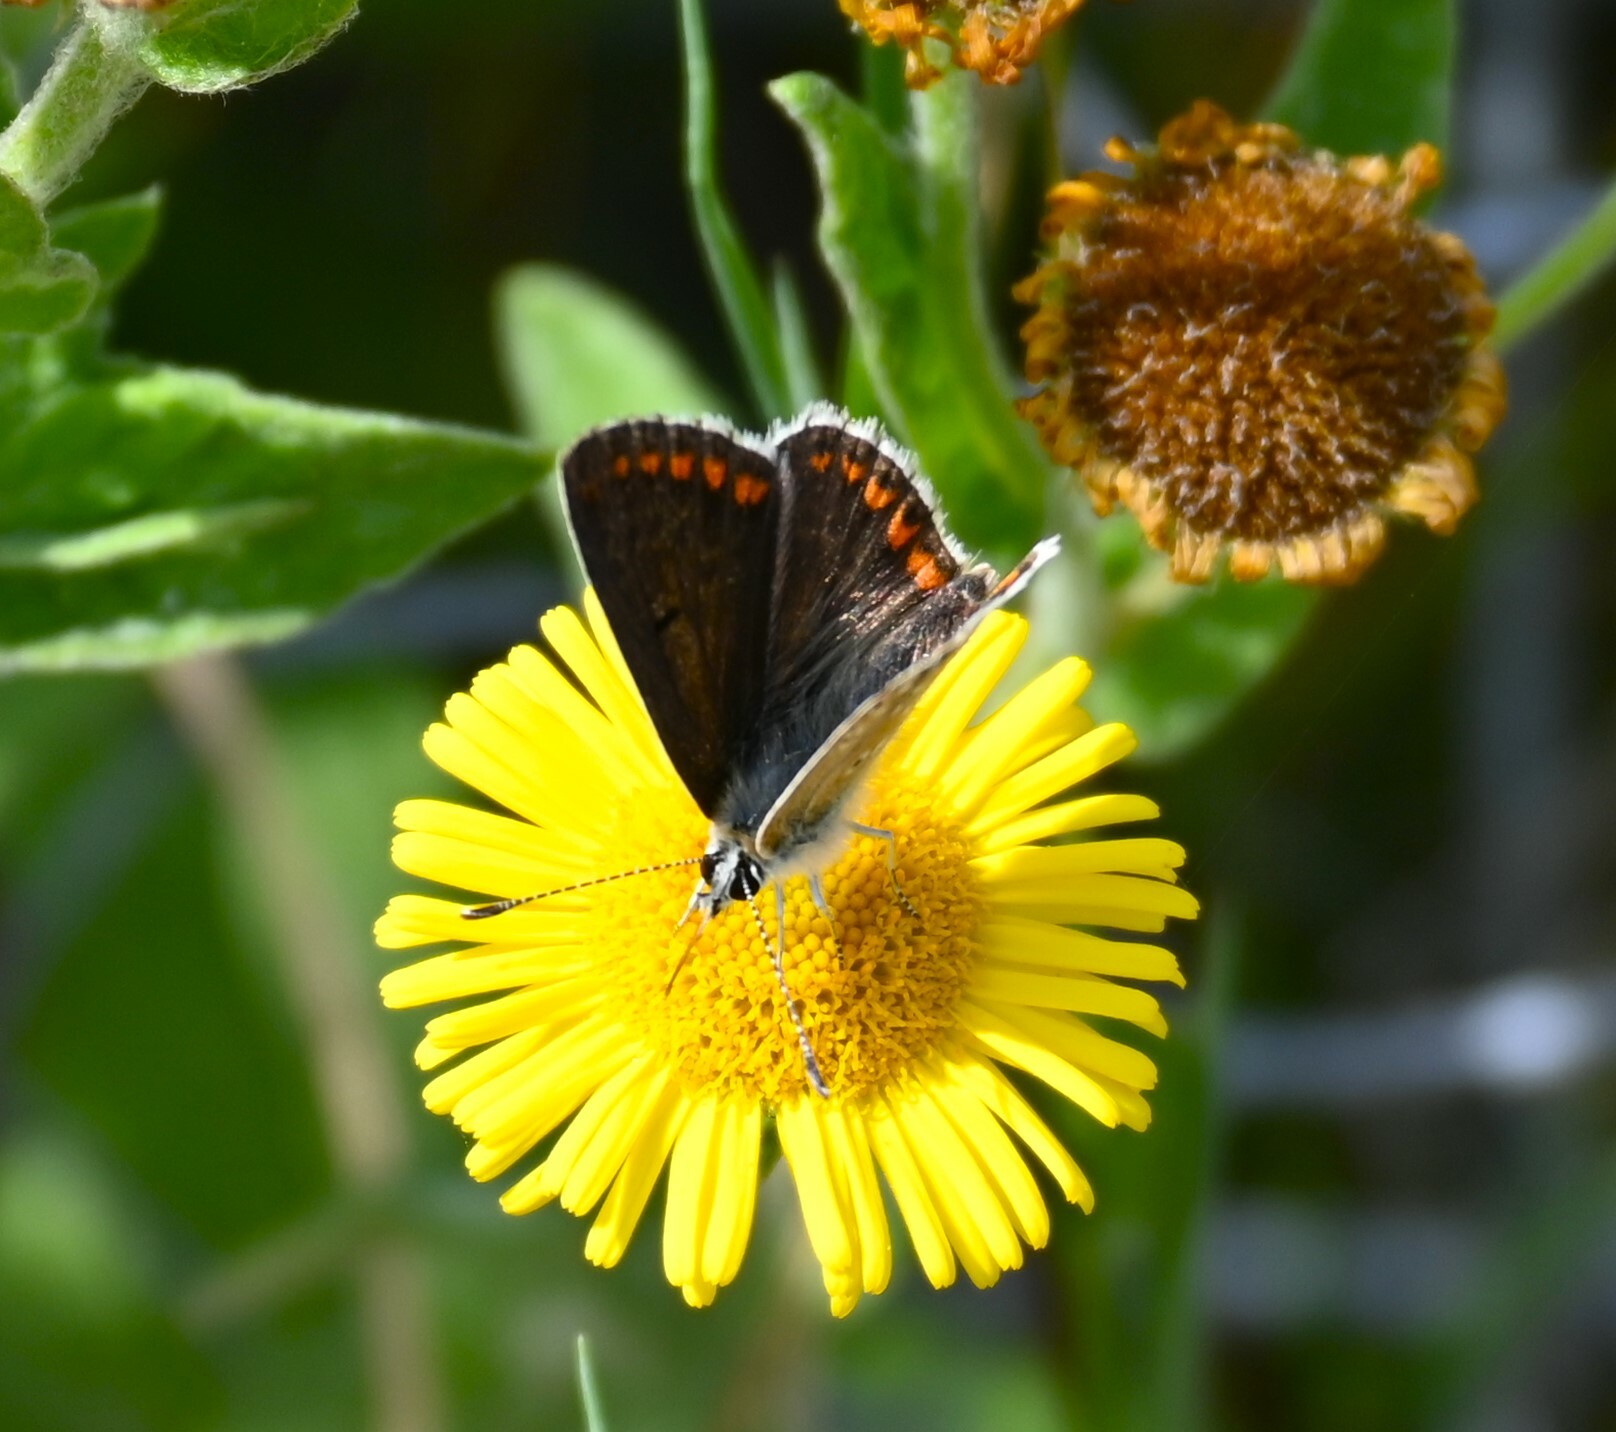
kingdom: Animalia
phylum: Arthropoda
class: Insecta
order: Lepidoptera
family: Lycaenidae
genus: Aricia
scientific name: Aricia agestis
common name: Brown argus
